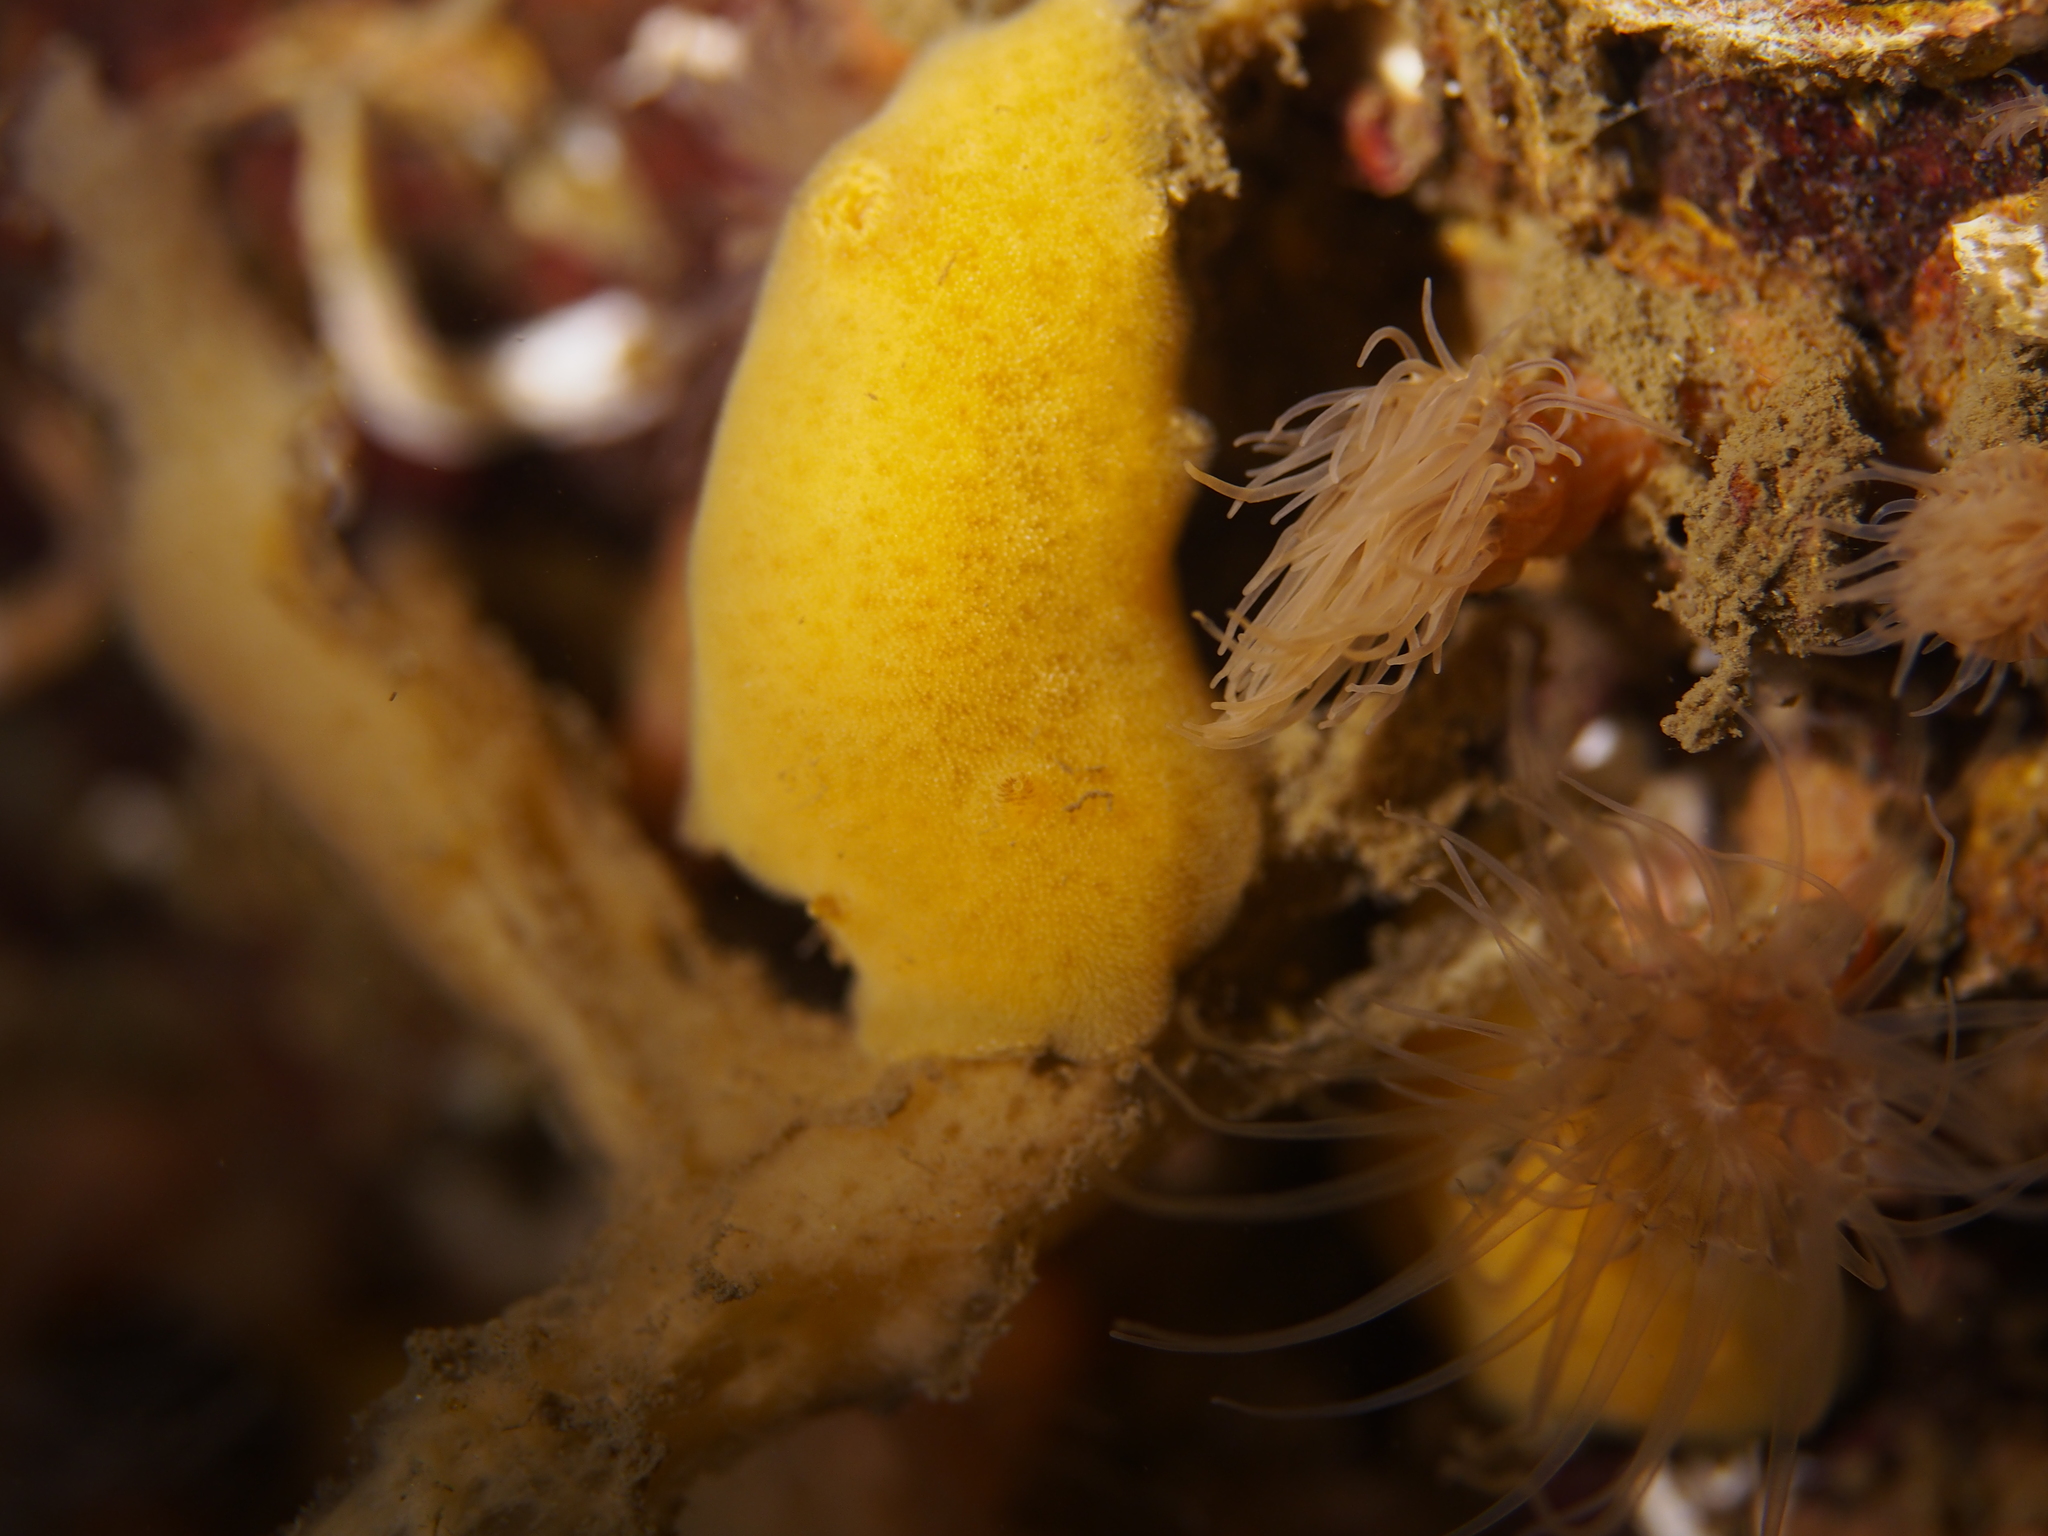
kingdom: Animalia
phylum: Mollusca
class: Gastropoda
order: Nudibranchia
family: Discodorididae
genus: Jorunna
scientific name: Jorunna tomentosa
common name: Grey sea slug
